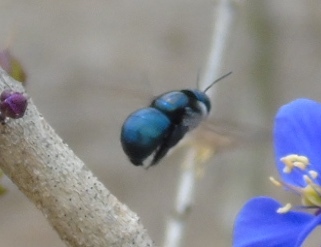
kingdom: Animalia
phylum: Arthropoda
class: Insecta
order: Hymenoptera
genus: Schonnherria
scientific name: Schonnherria
